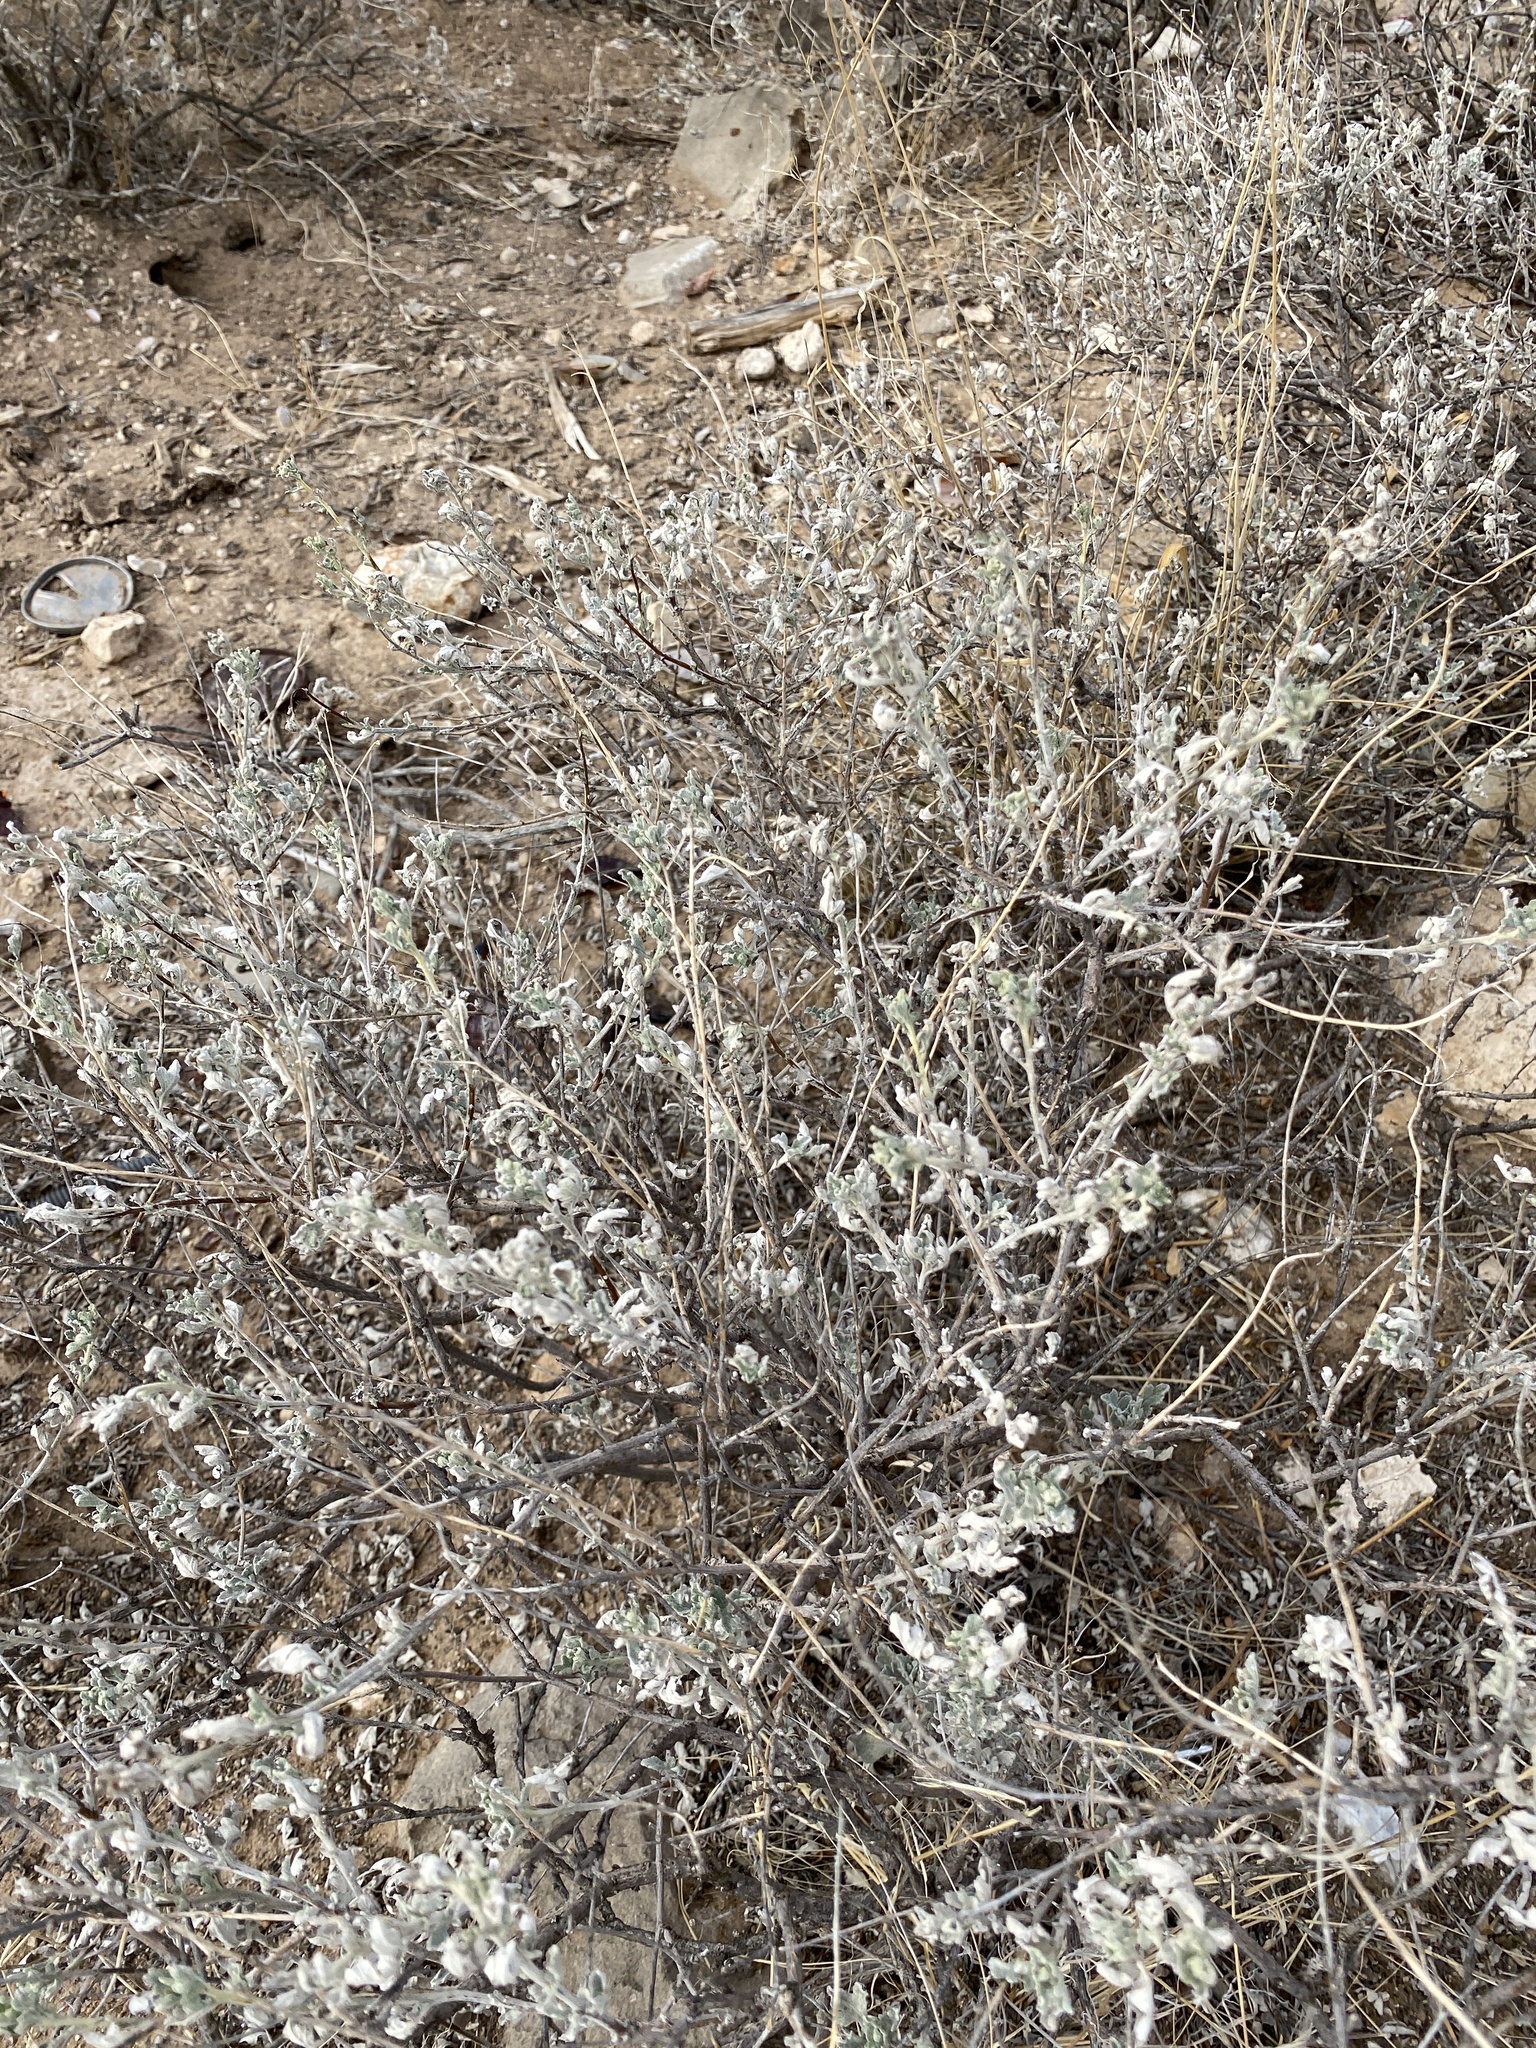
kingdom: Plantae
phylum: Tracheophyta
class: Magnoliopsida
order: Asterales
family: Asteraceae
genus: Parthenium
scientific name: Parthenium incanum
